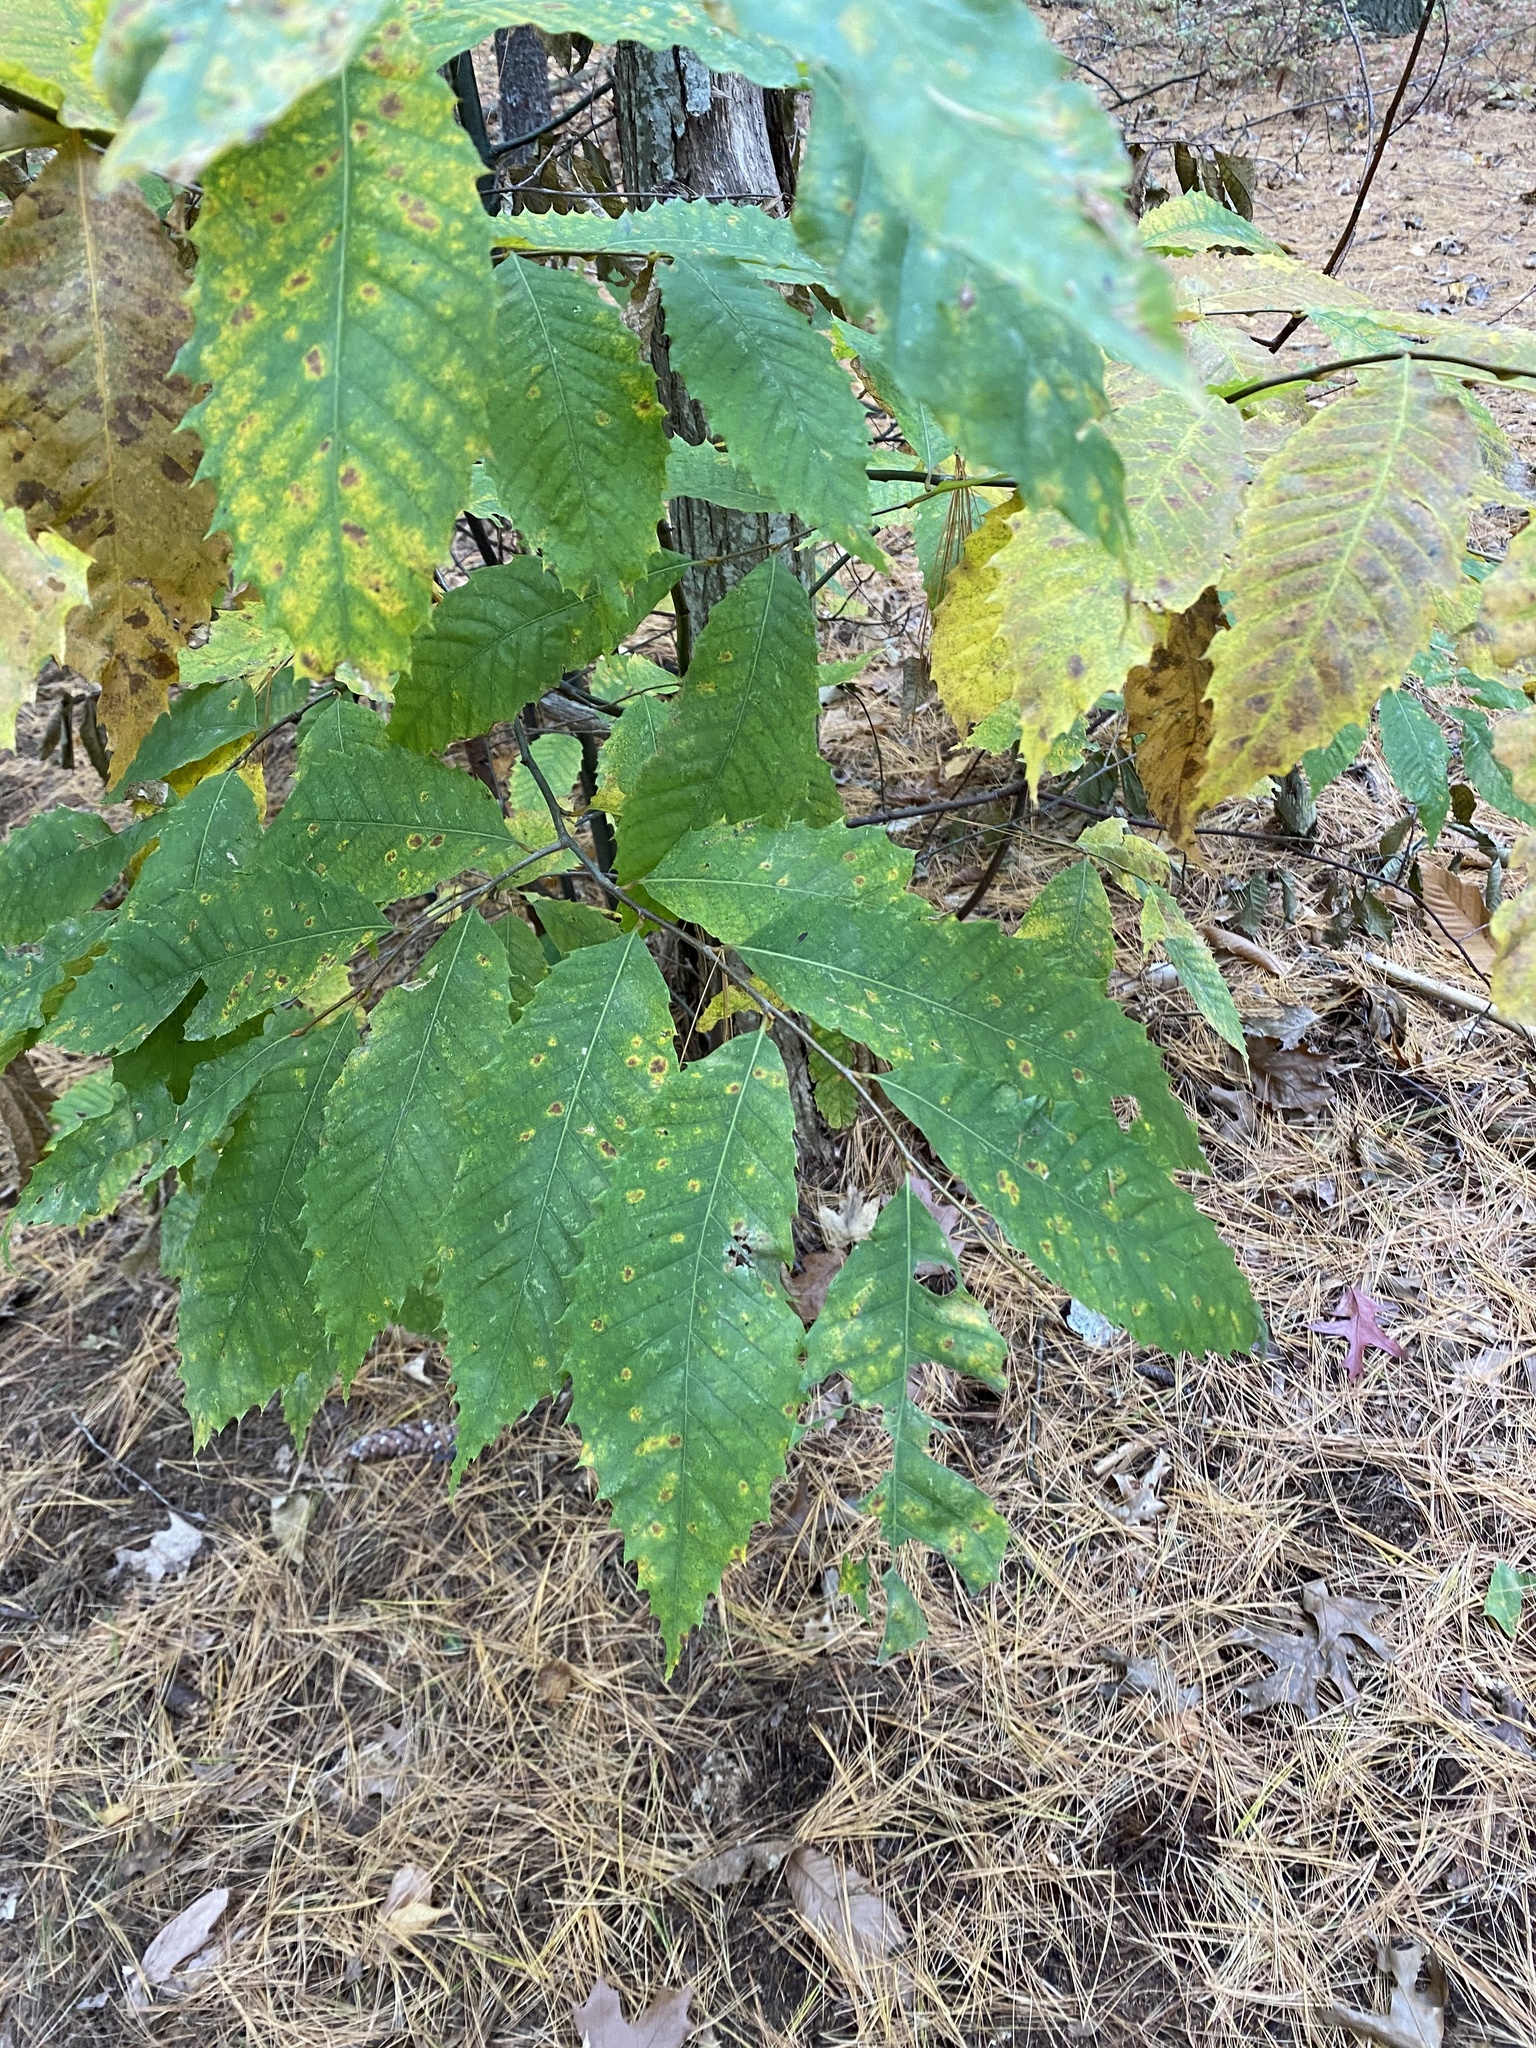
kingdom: Plantae
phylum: Tracheophyta
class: Magnoliopsida
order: Fagales
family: Fagaceae
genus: Castanea
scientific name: Castanea dentata
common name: American chestnut
